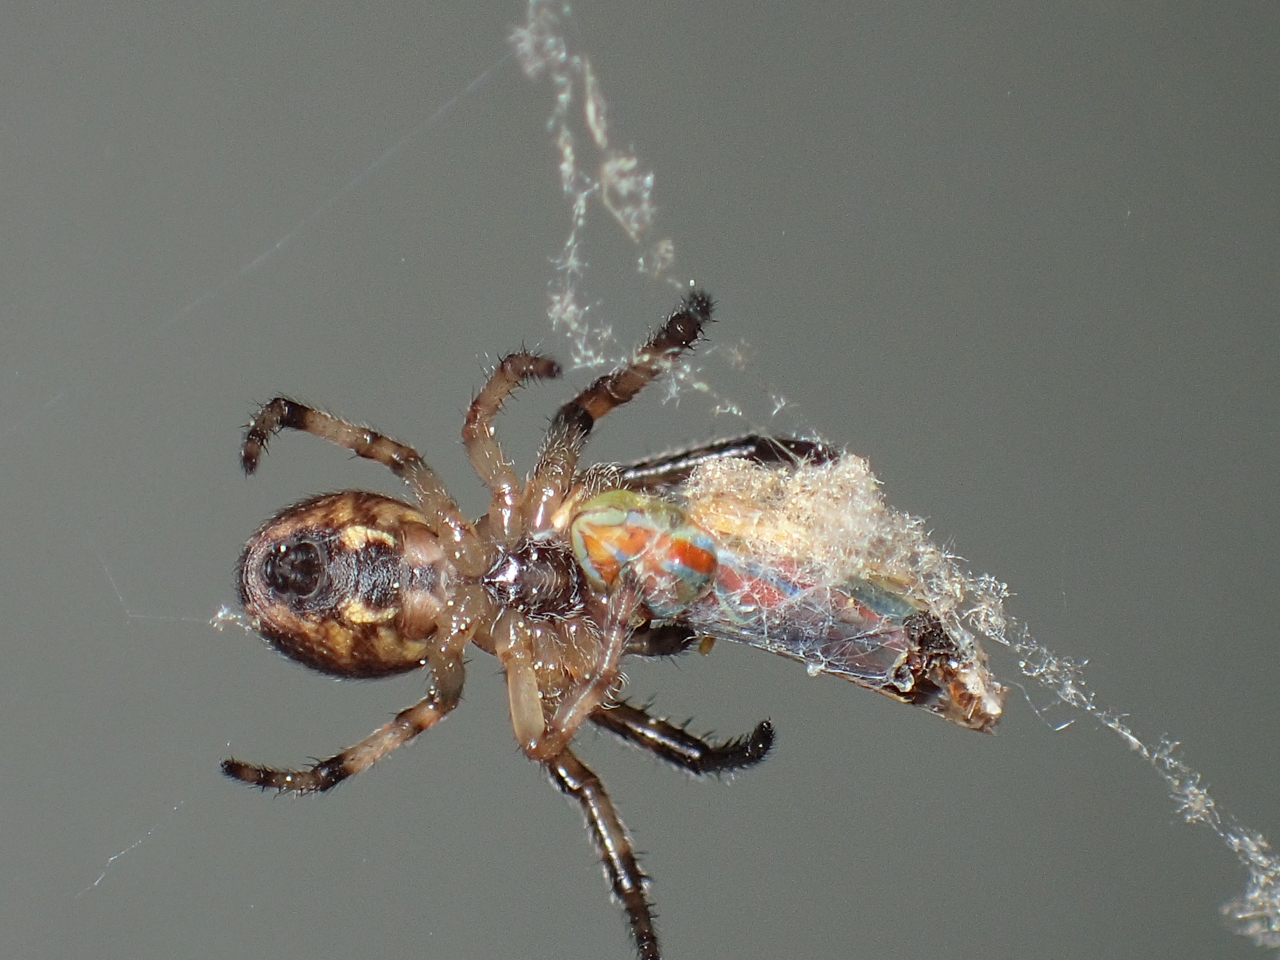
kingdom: Animalia
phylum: Arthropoda
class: Arachnida
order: Araneae
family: Araneidae
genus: Larinioides
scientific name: Larinioides cornutus
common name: Furrow orbweaver
